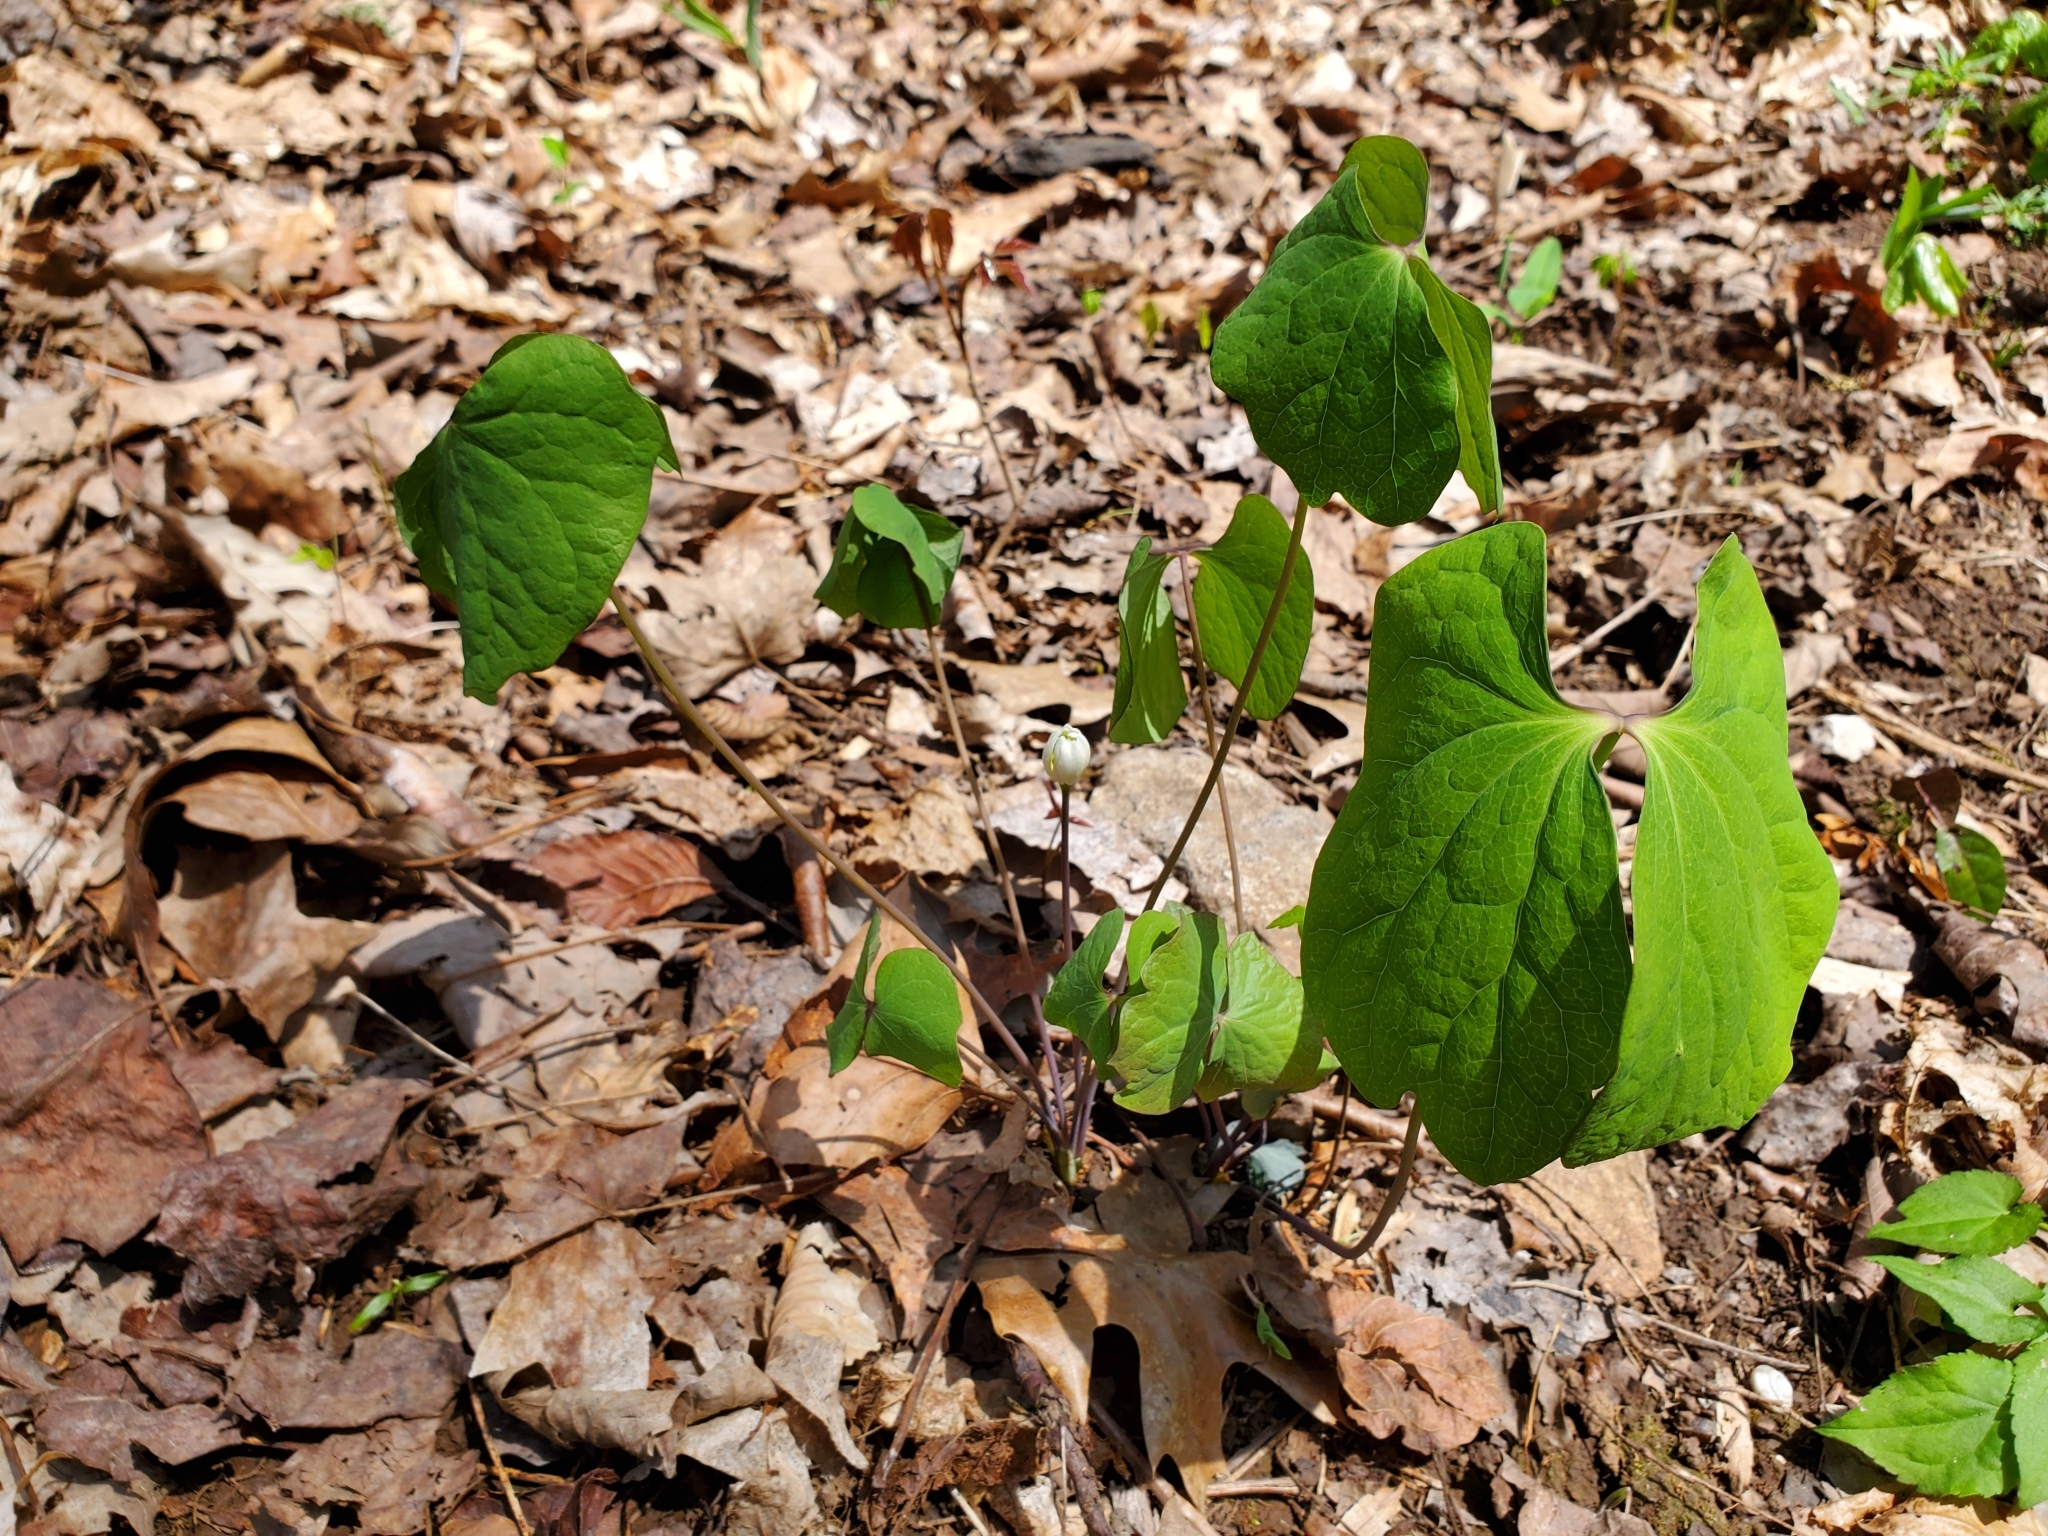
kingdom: Plantae
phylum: Tracheophyta
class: Magnoliopsida
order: Ranunculales
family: Berberidaceae
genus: Jeffersonia
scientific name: Jeffersonia diphylla
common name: Rheumatism-root
